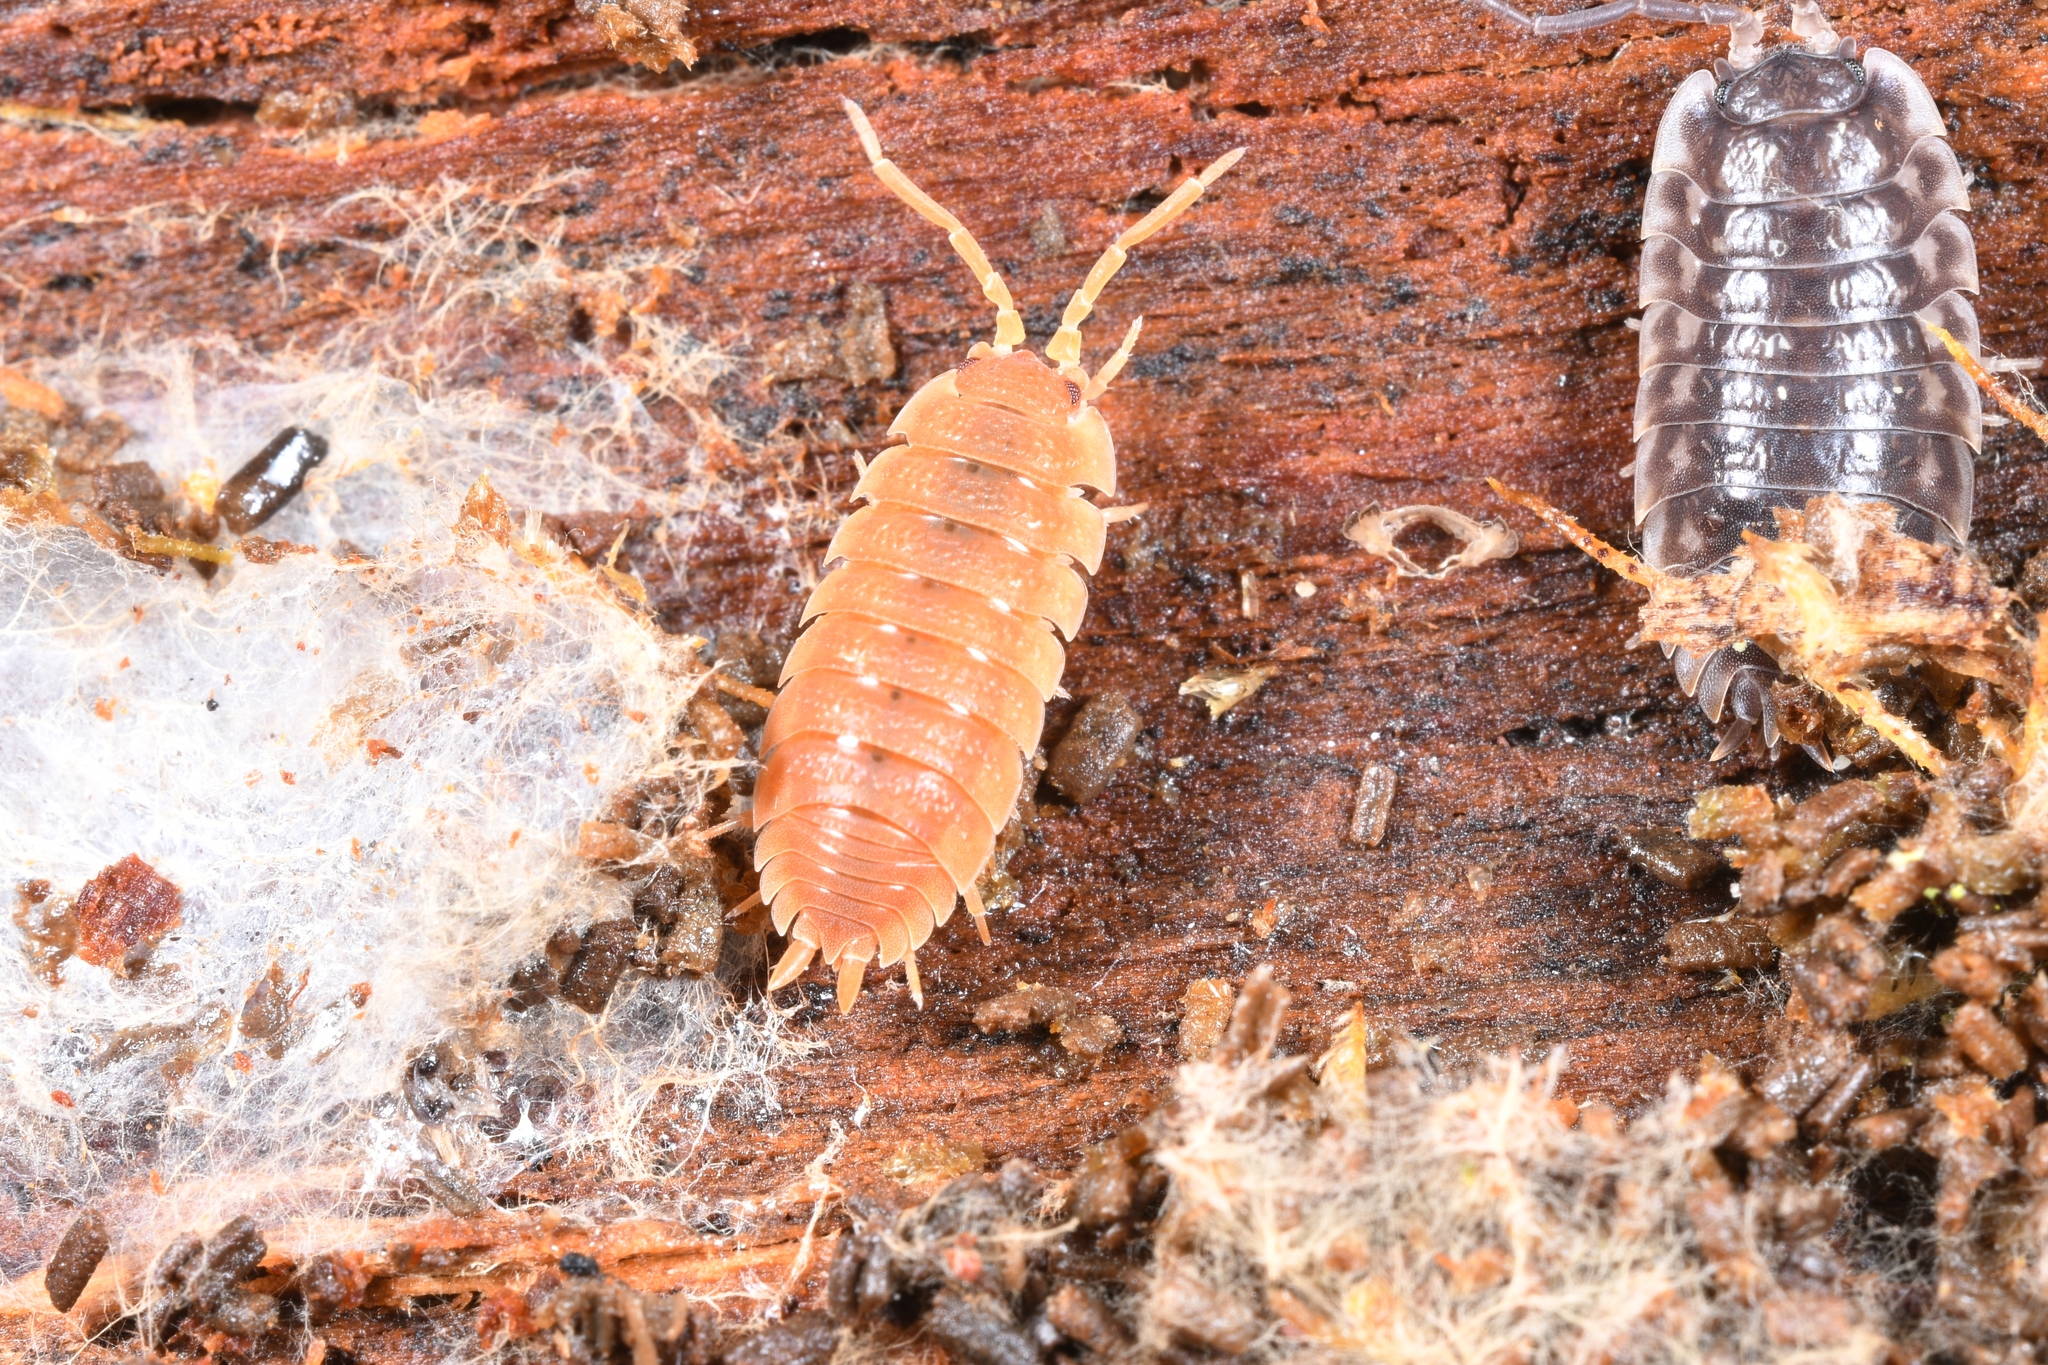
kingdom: Animalia
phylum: Arthropoda
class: Malacostraca
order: Isopoda
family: Porcellionidae
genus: Porcellio
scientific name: Porcellio scaber
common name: Common rough woodlouse
